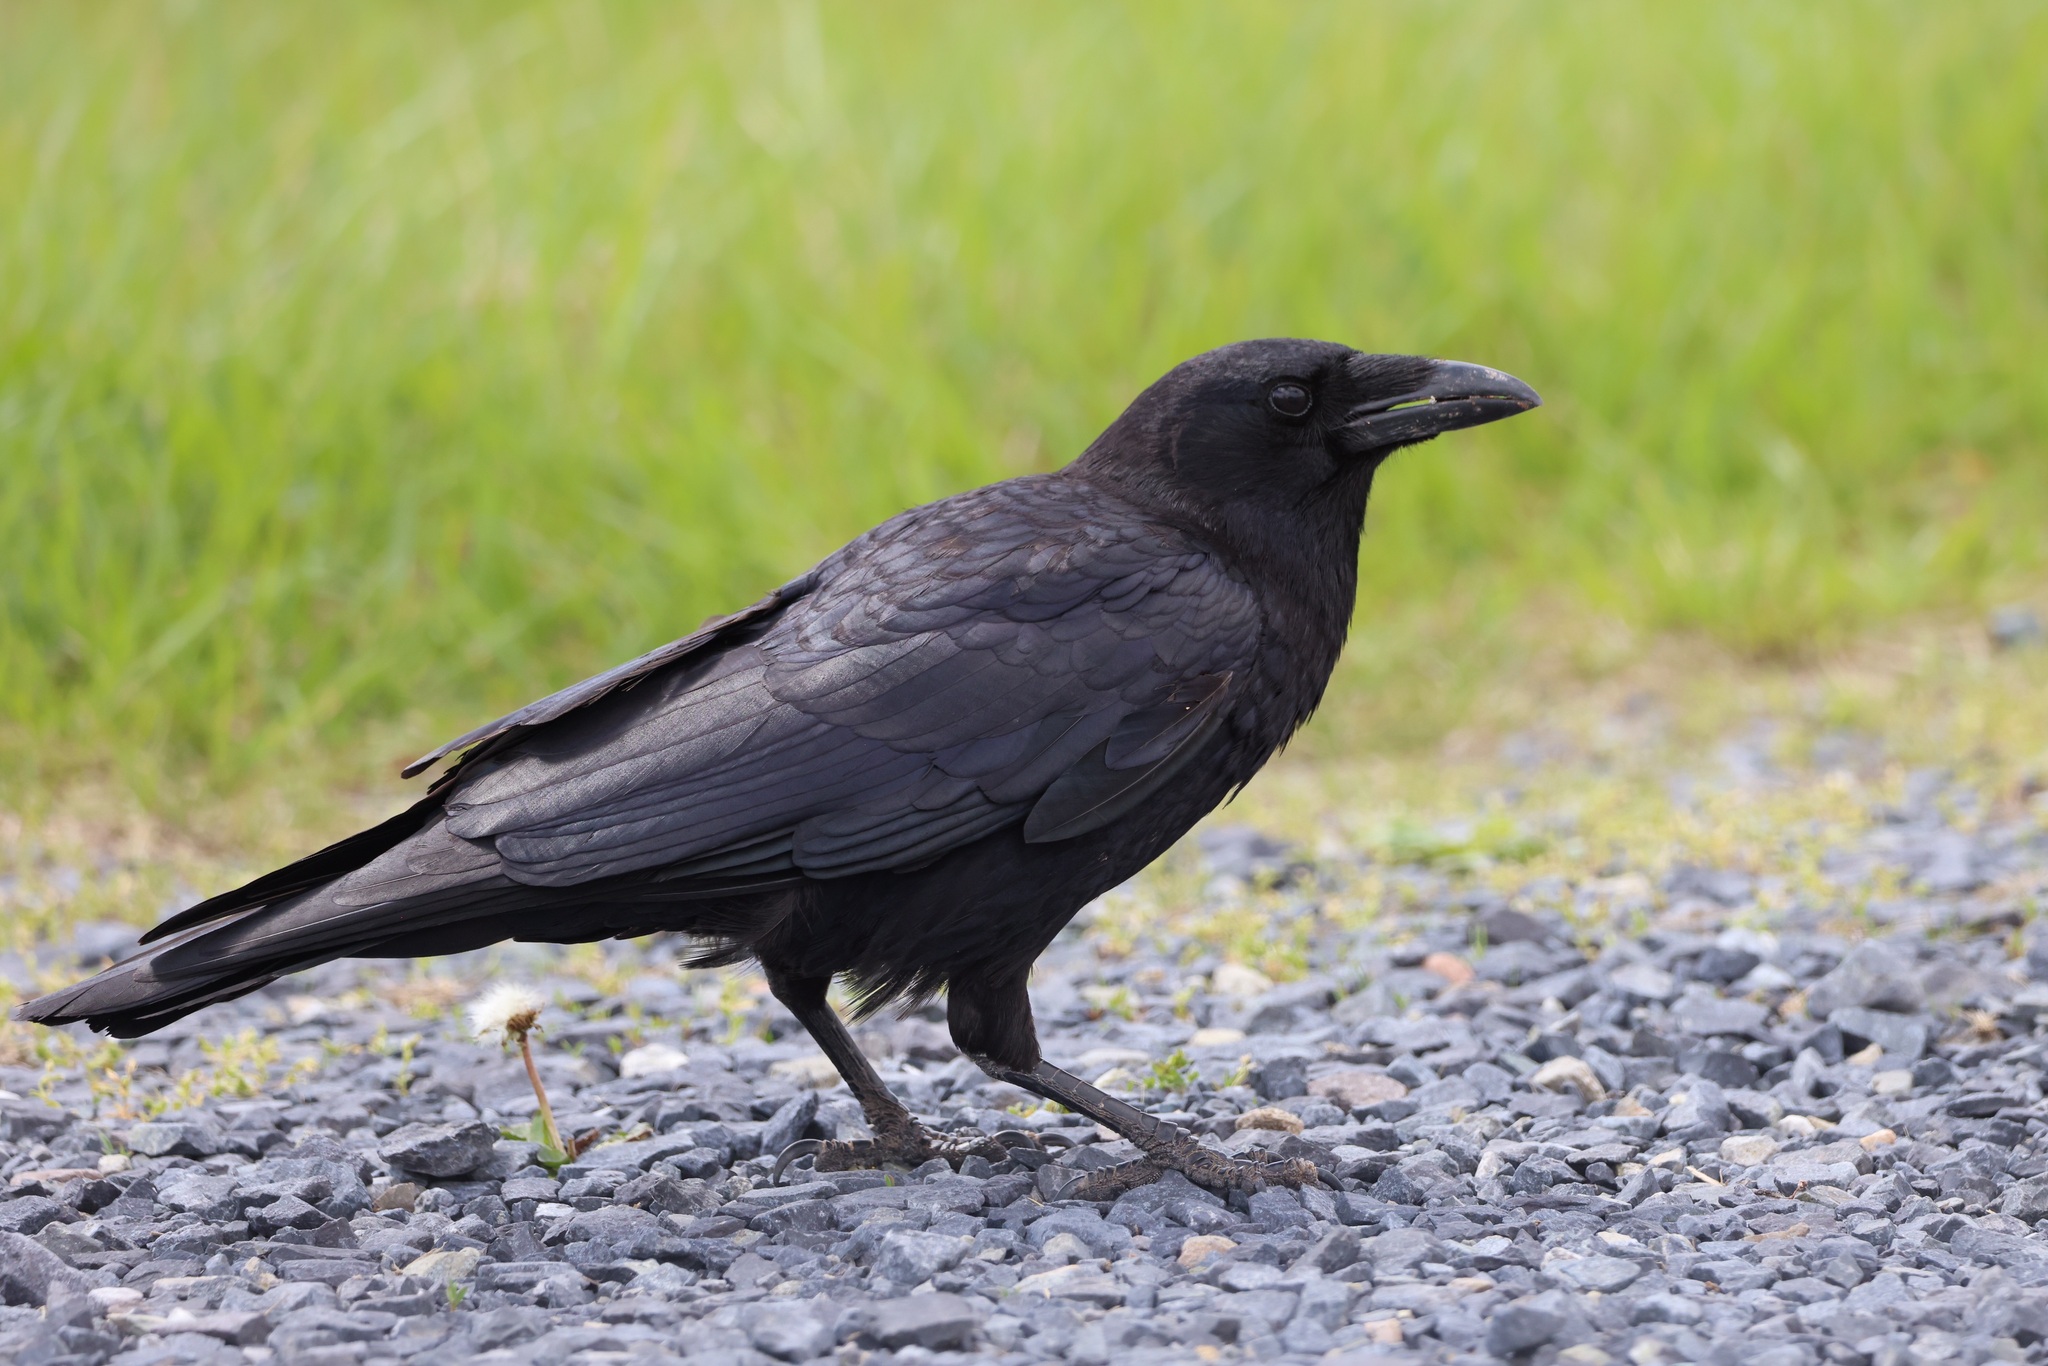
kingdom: Animalia
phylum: Chordata
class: Aves
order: Passeriformes
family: Corvidae
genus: Corvus
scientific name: Corvus brachyrhynchos
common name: American crow
